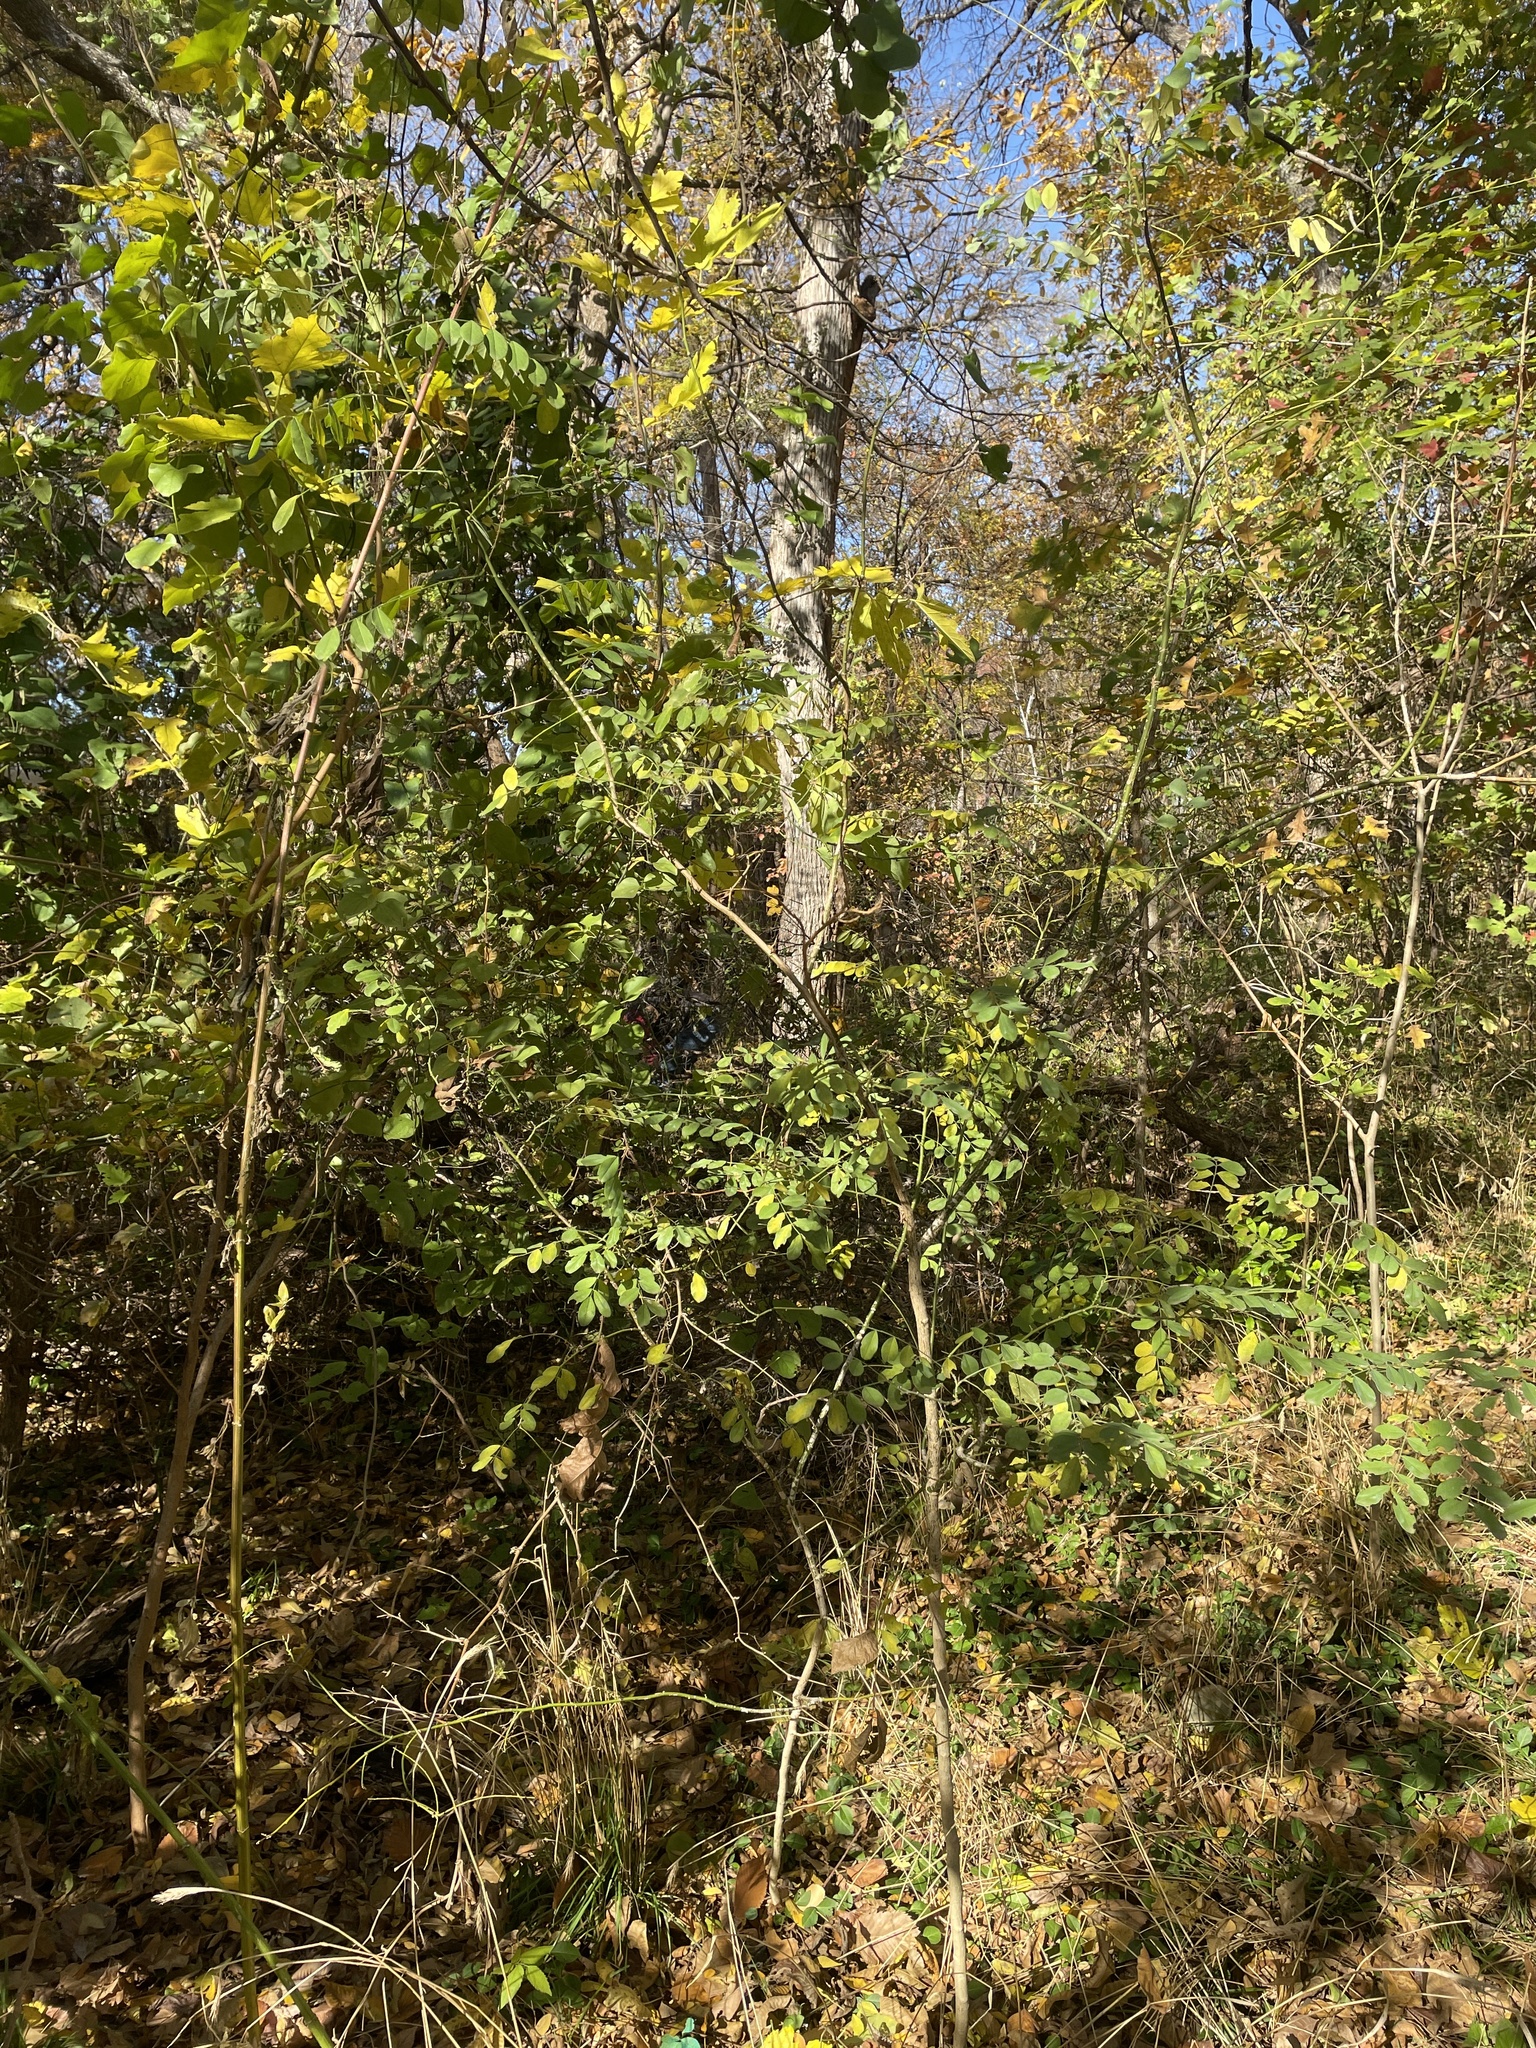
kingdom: Plantae
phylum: Tracheophyta
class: Magnoliopsida
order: Fabales
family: Fabaceae
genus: Styphnolobium
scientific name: Styphnolobium affine
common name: Texas sophora
